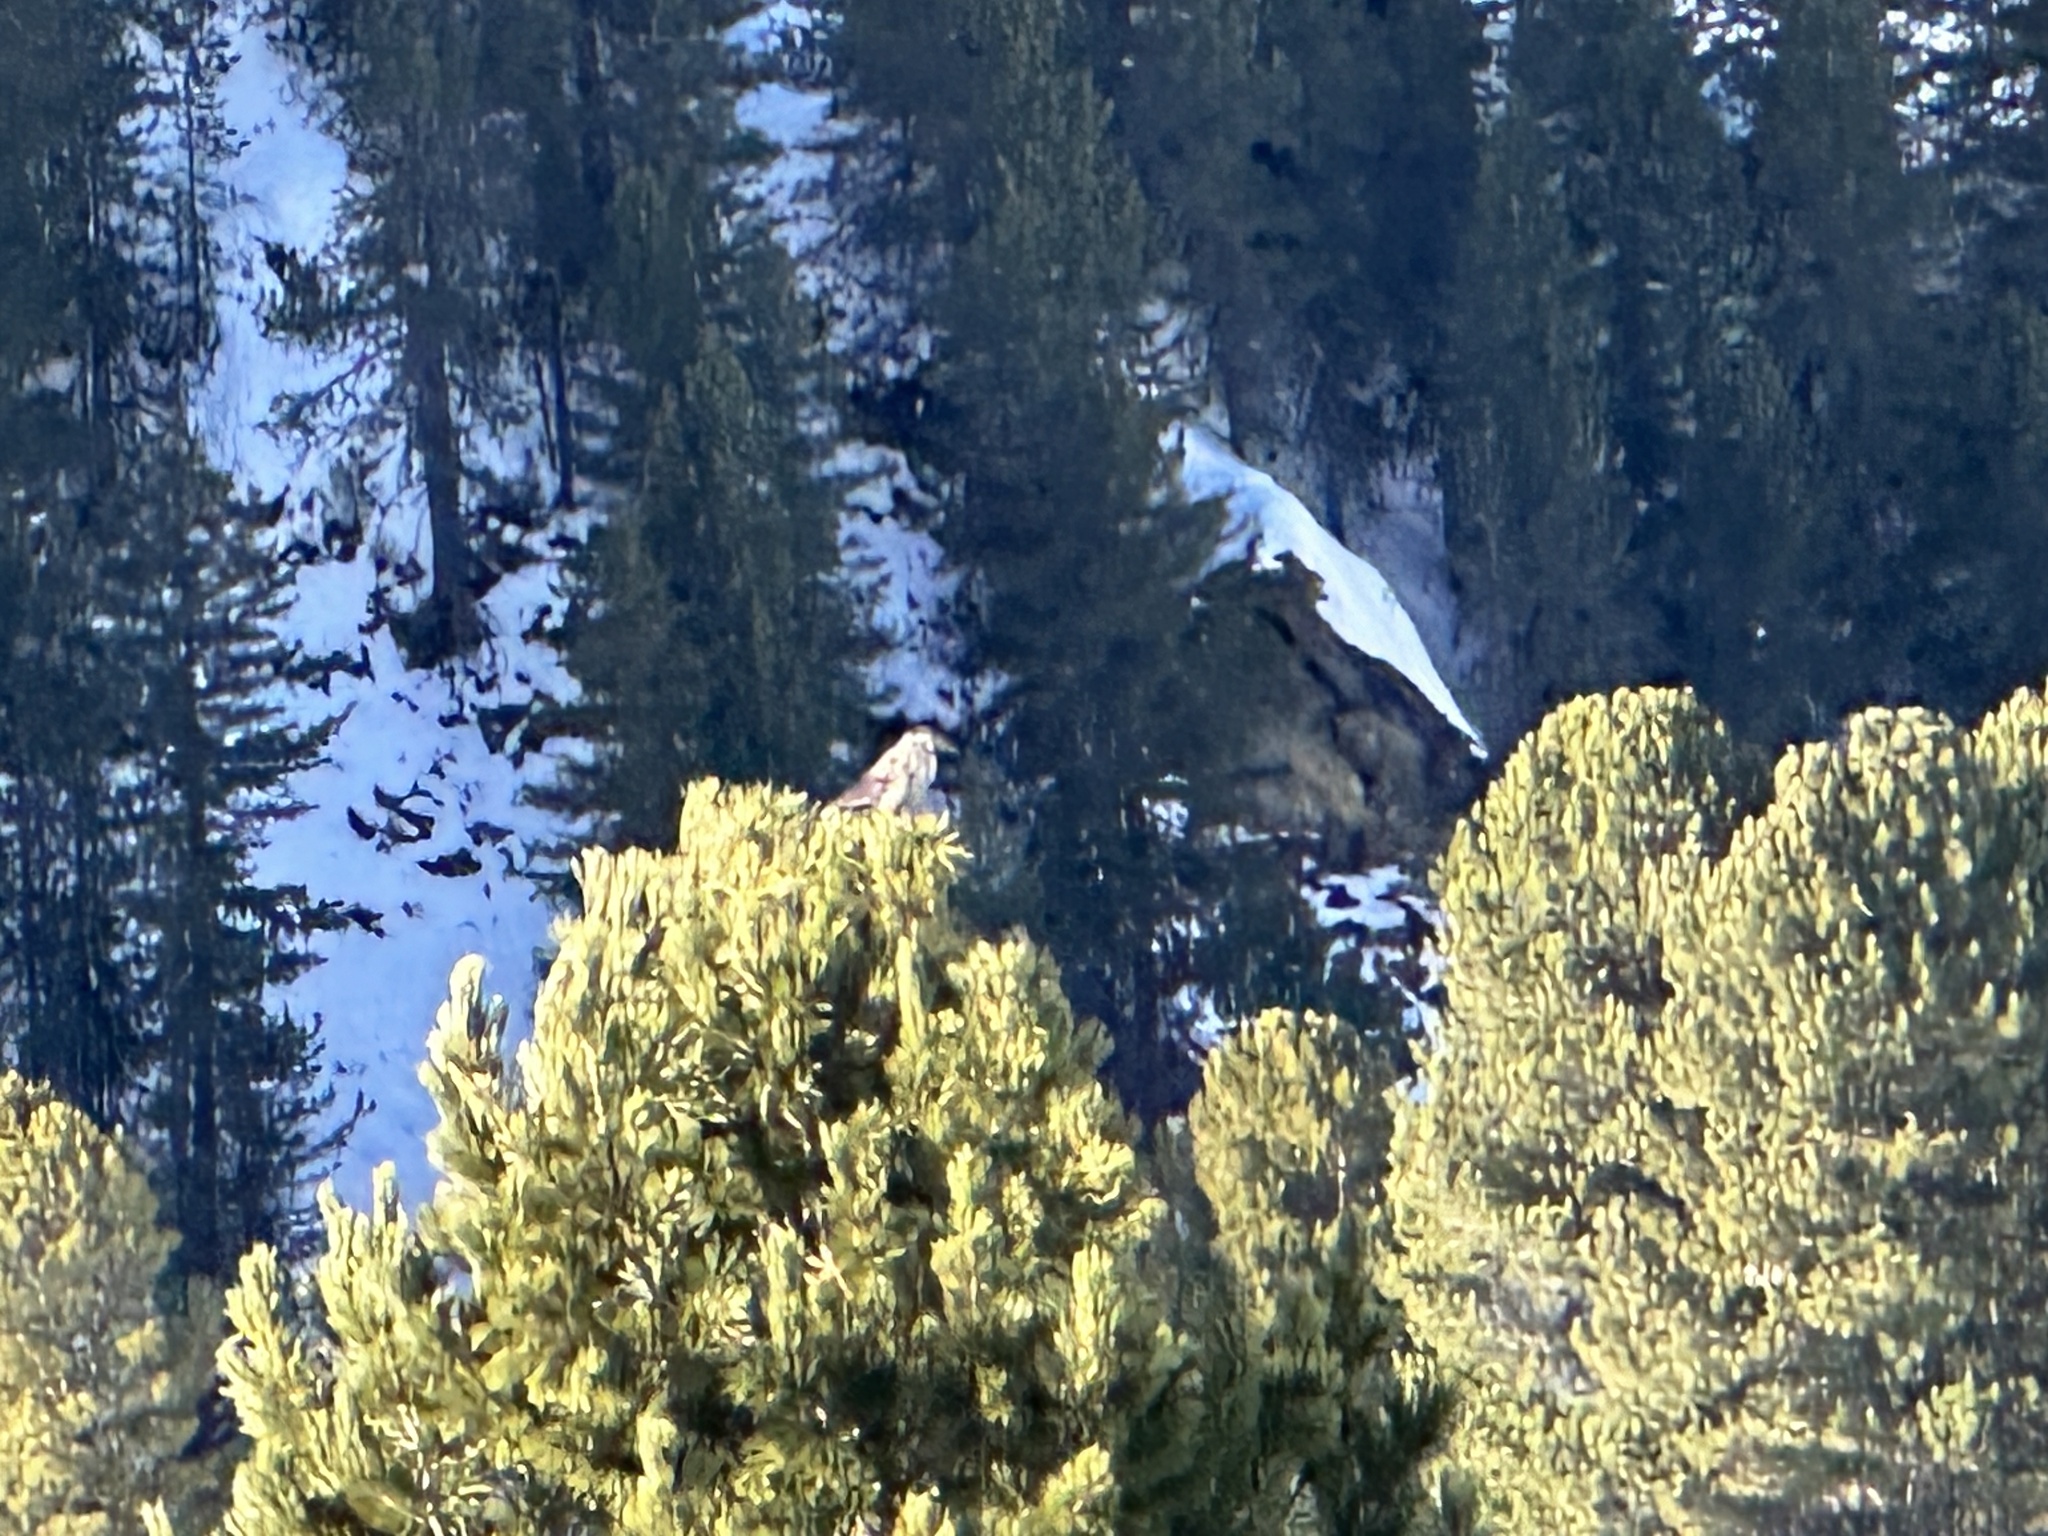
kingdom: Animalia
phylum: Chordata
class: Aves
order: Passeriformes
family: Corvidae
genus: Nucifraga
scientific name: Nucifraga caryocatactes
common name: Spotted nutcracker
